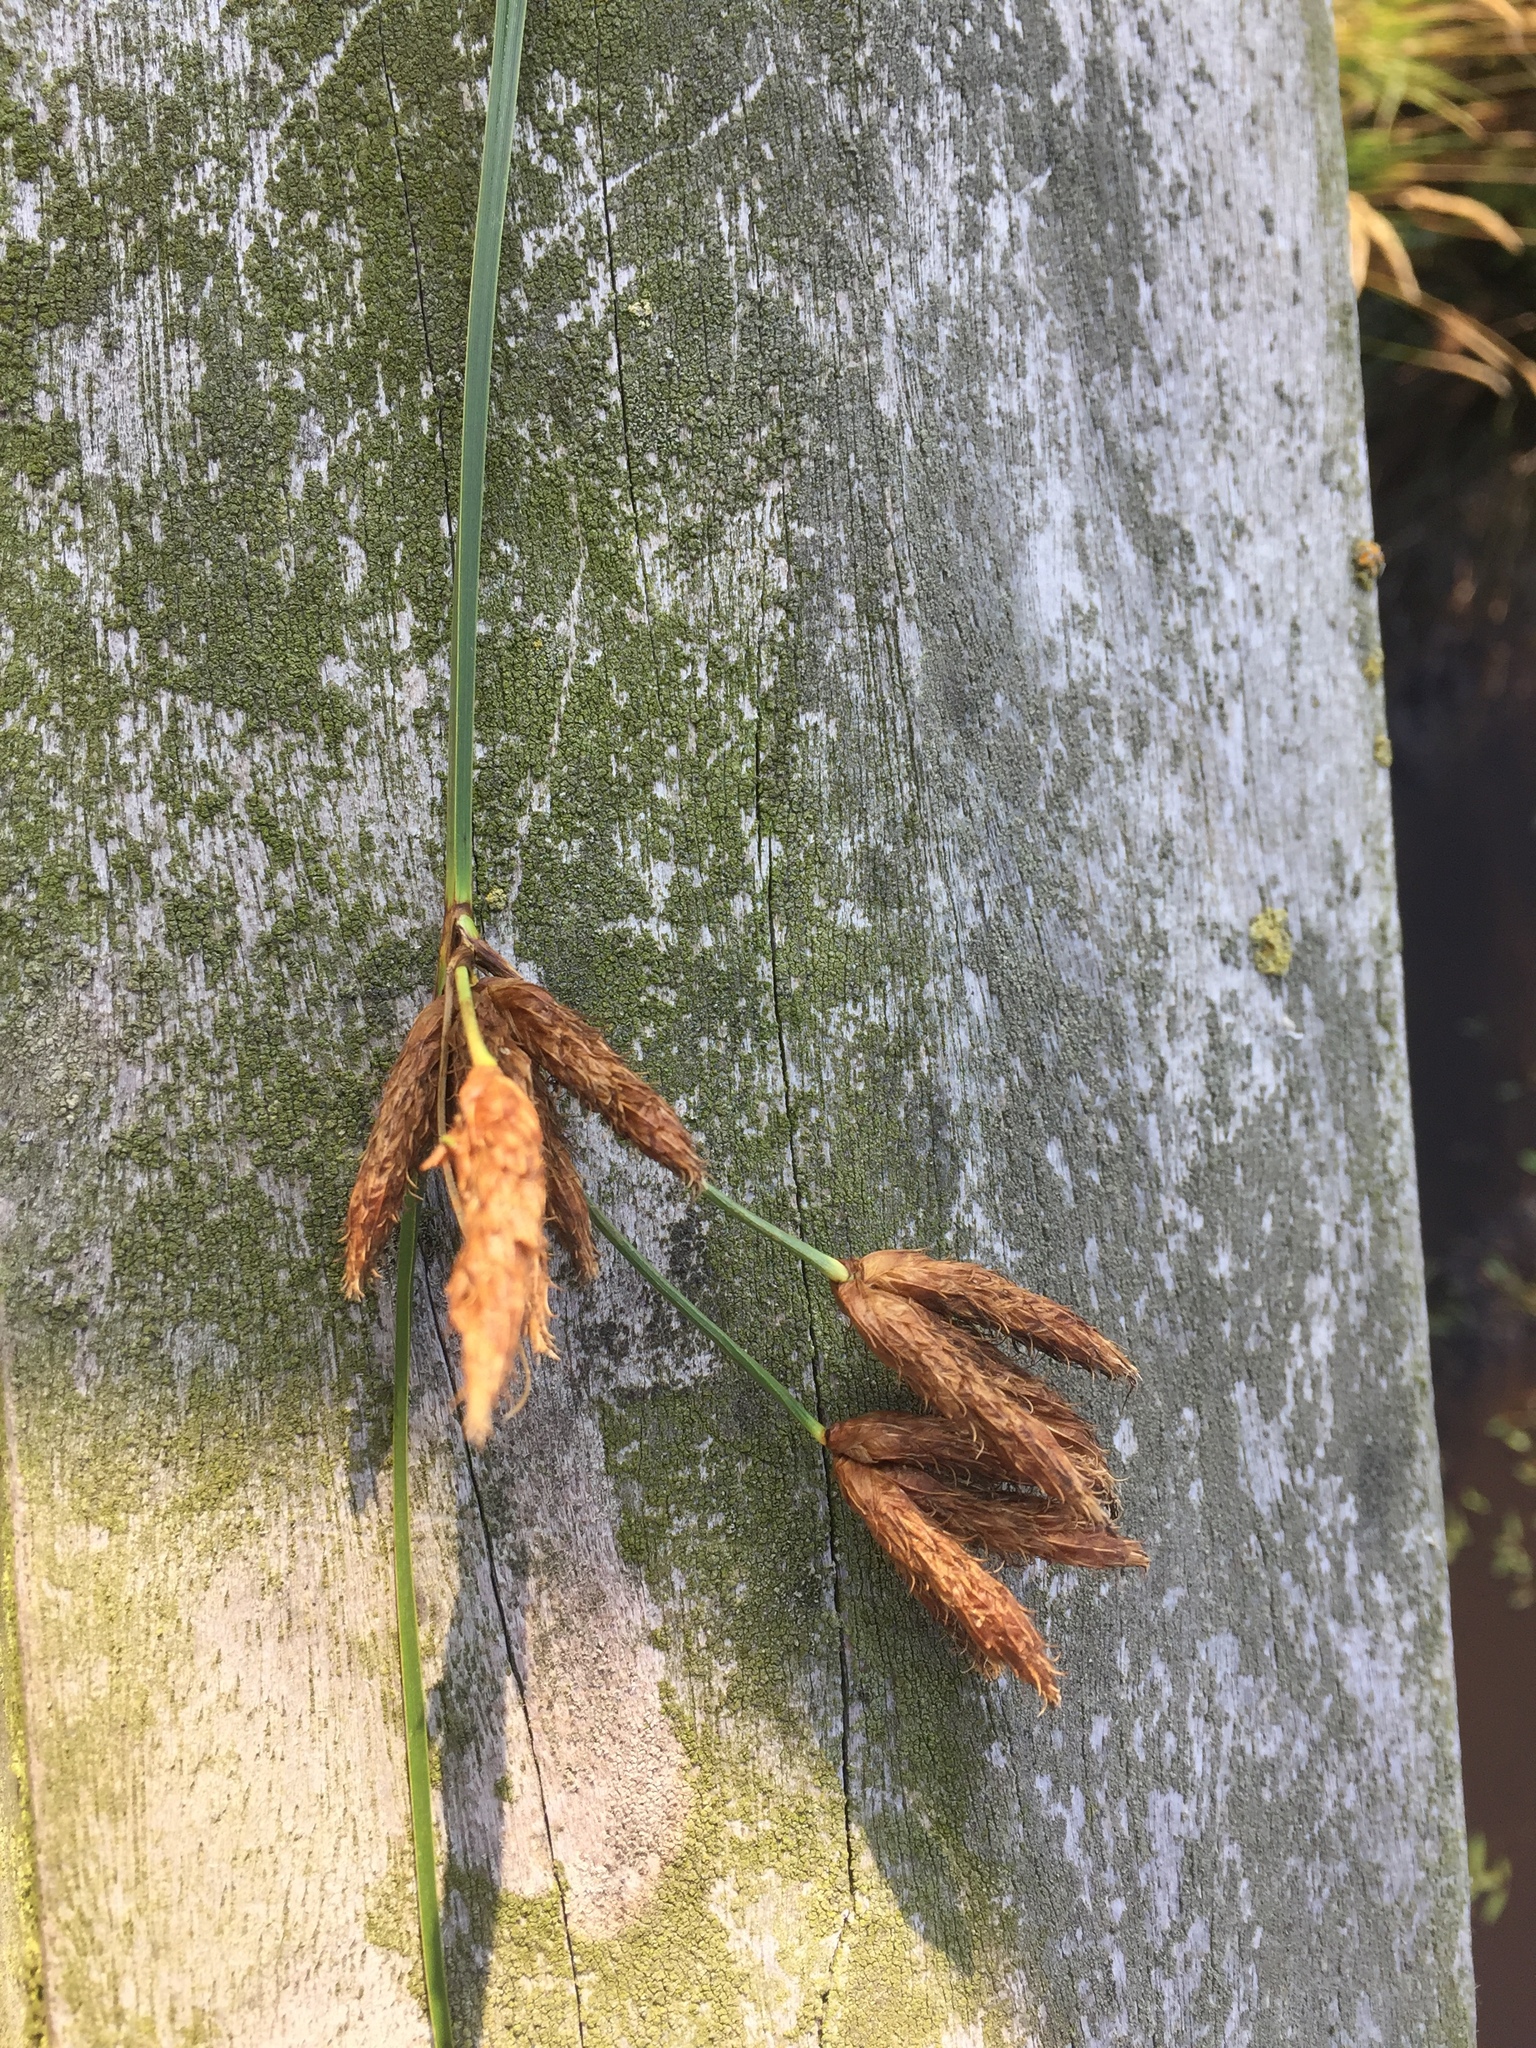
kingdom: Plantae
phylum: Tracheophyta
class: Liliopsida
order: Poales
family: Cyperaceae
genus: Bolboschoenus
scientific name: Bolboschoenus maritimus
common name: Sea club-rush
